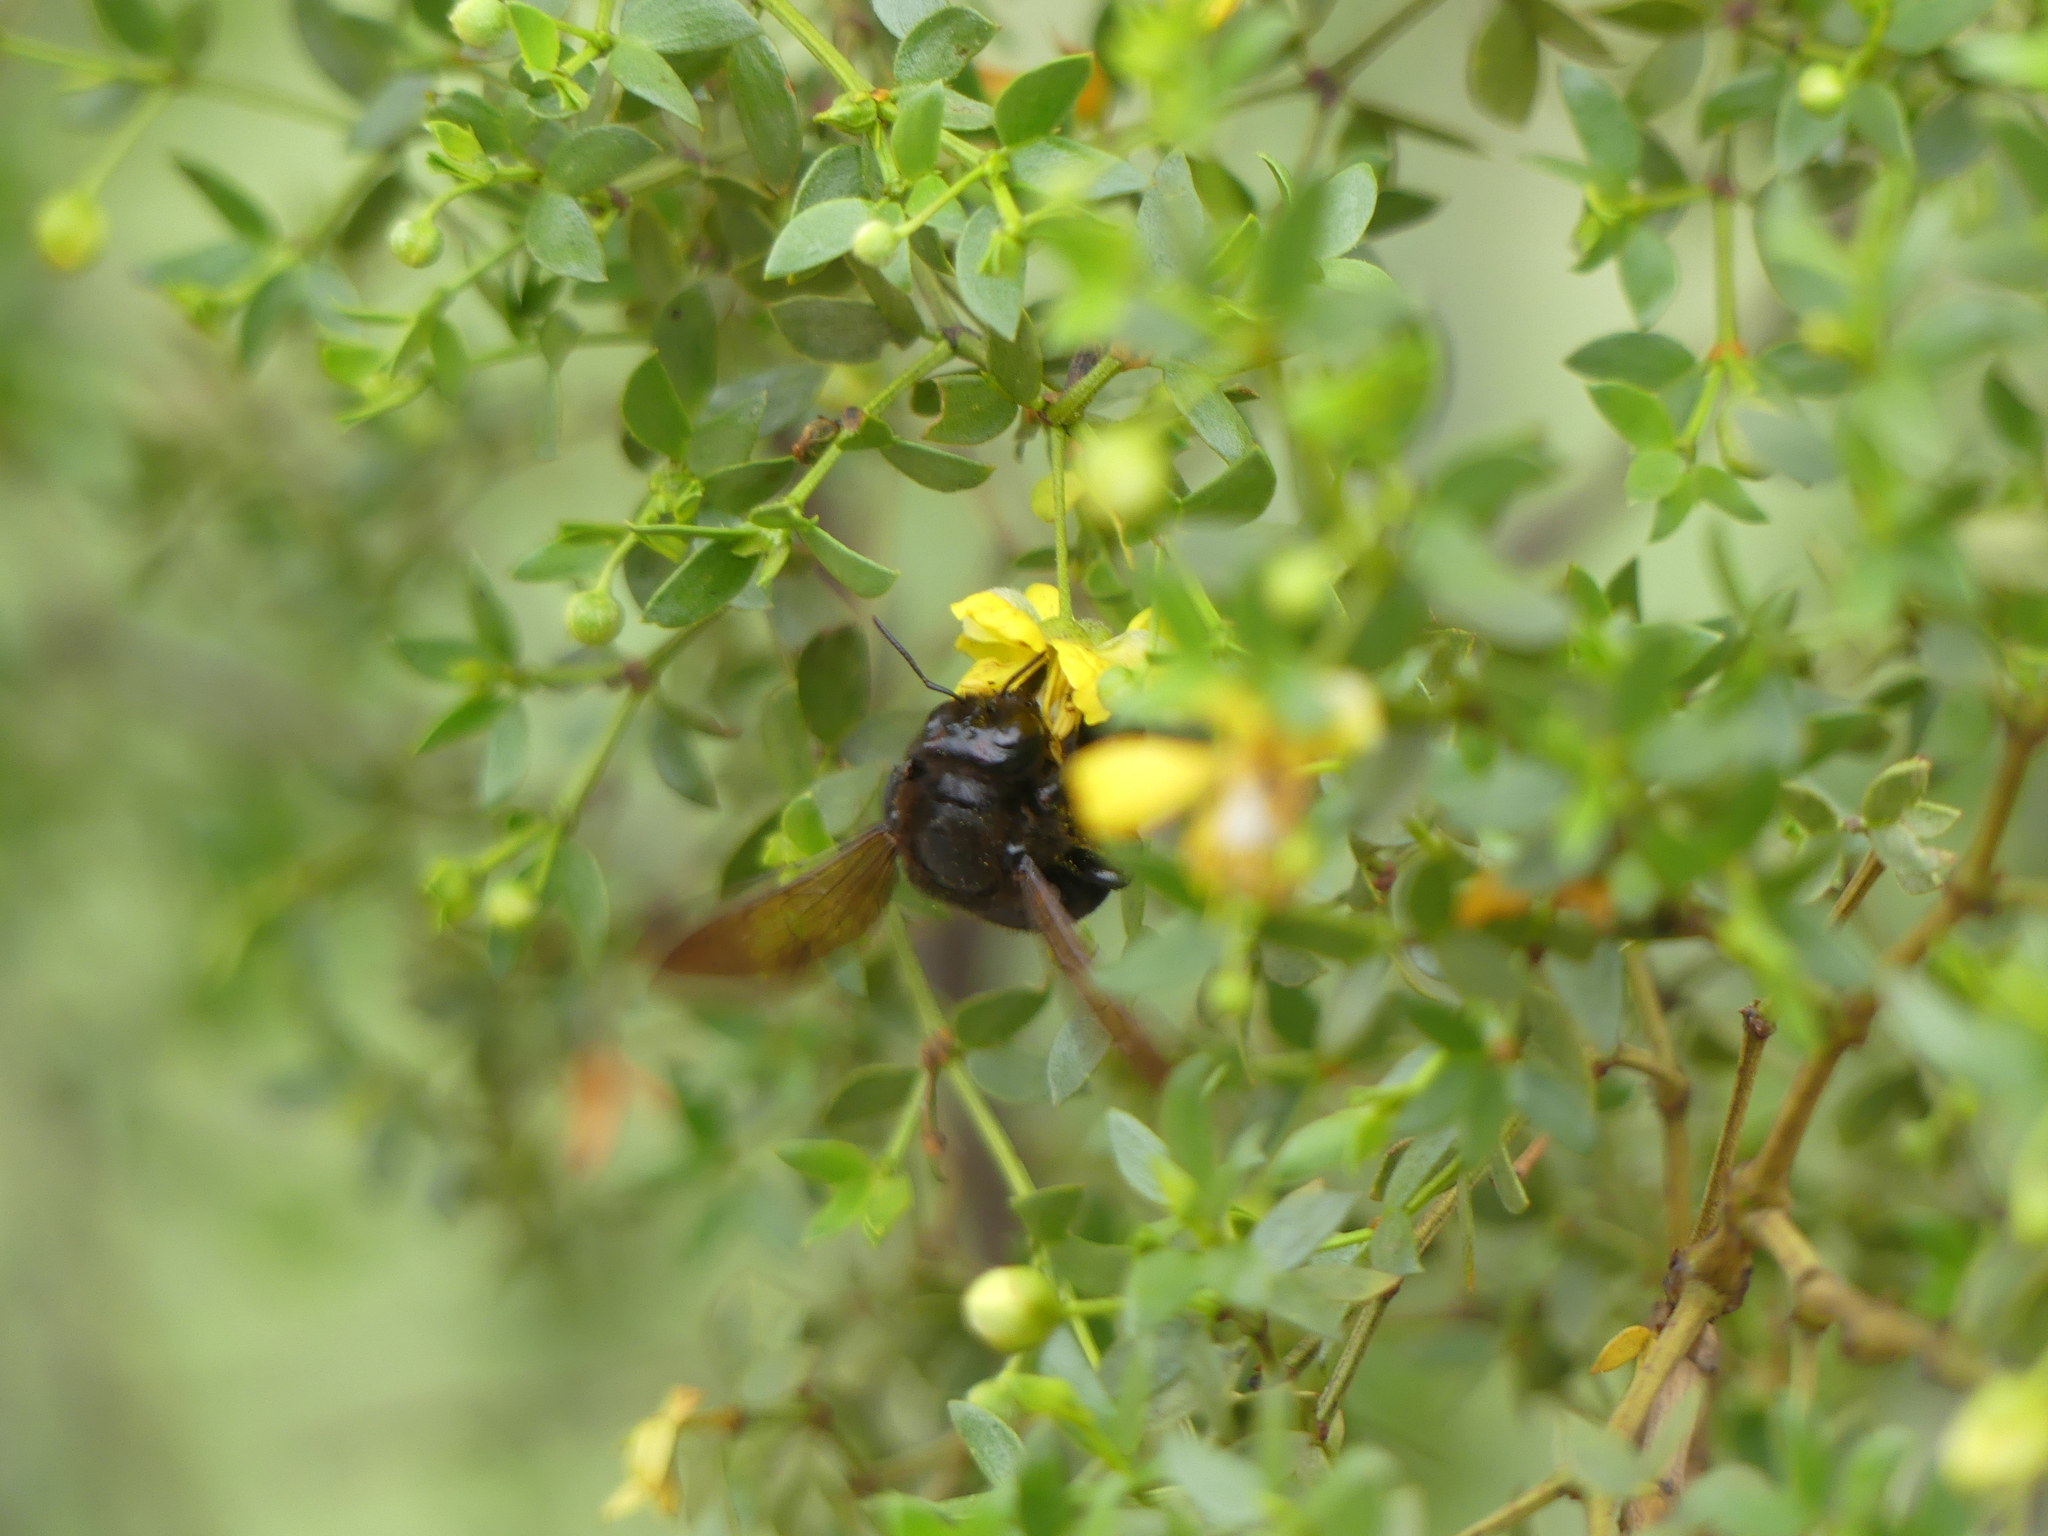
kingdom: Animalia
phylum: Arthropoda
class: Insecta
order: Hymenoptera
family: Apidae
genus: Xylocopa
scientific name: Xylocopa sonorina
